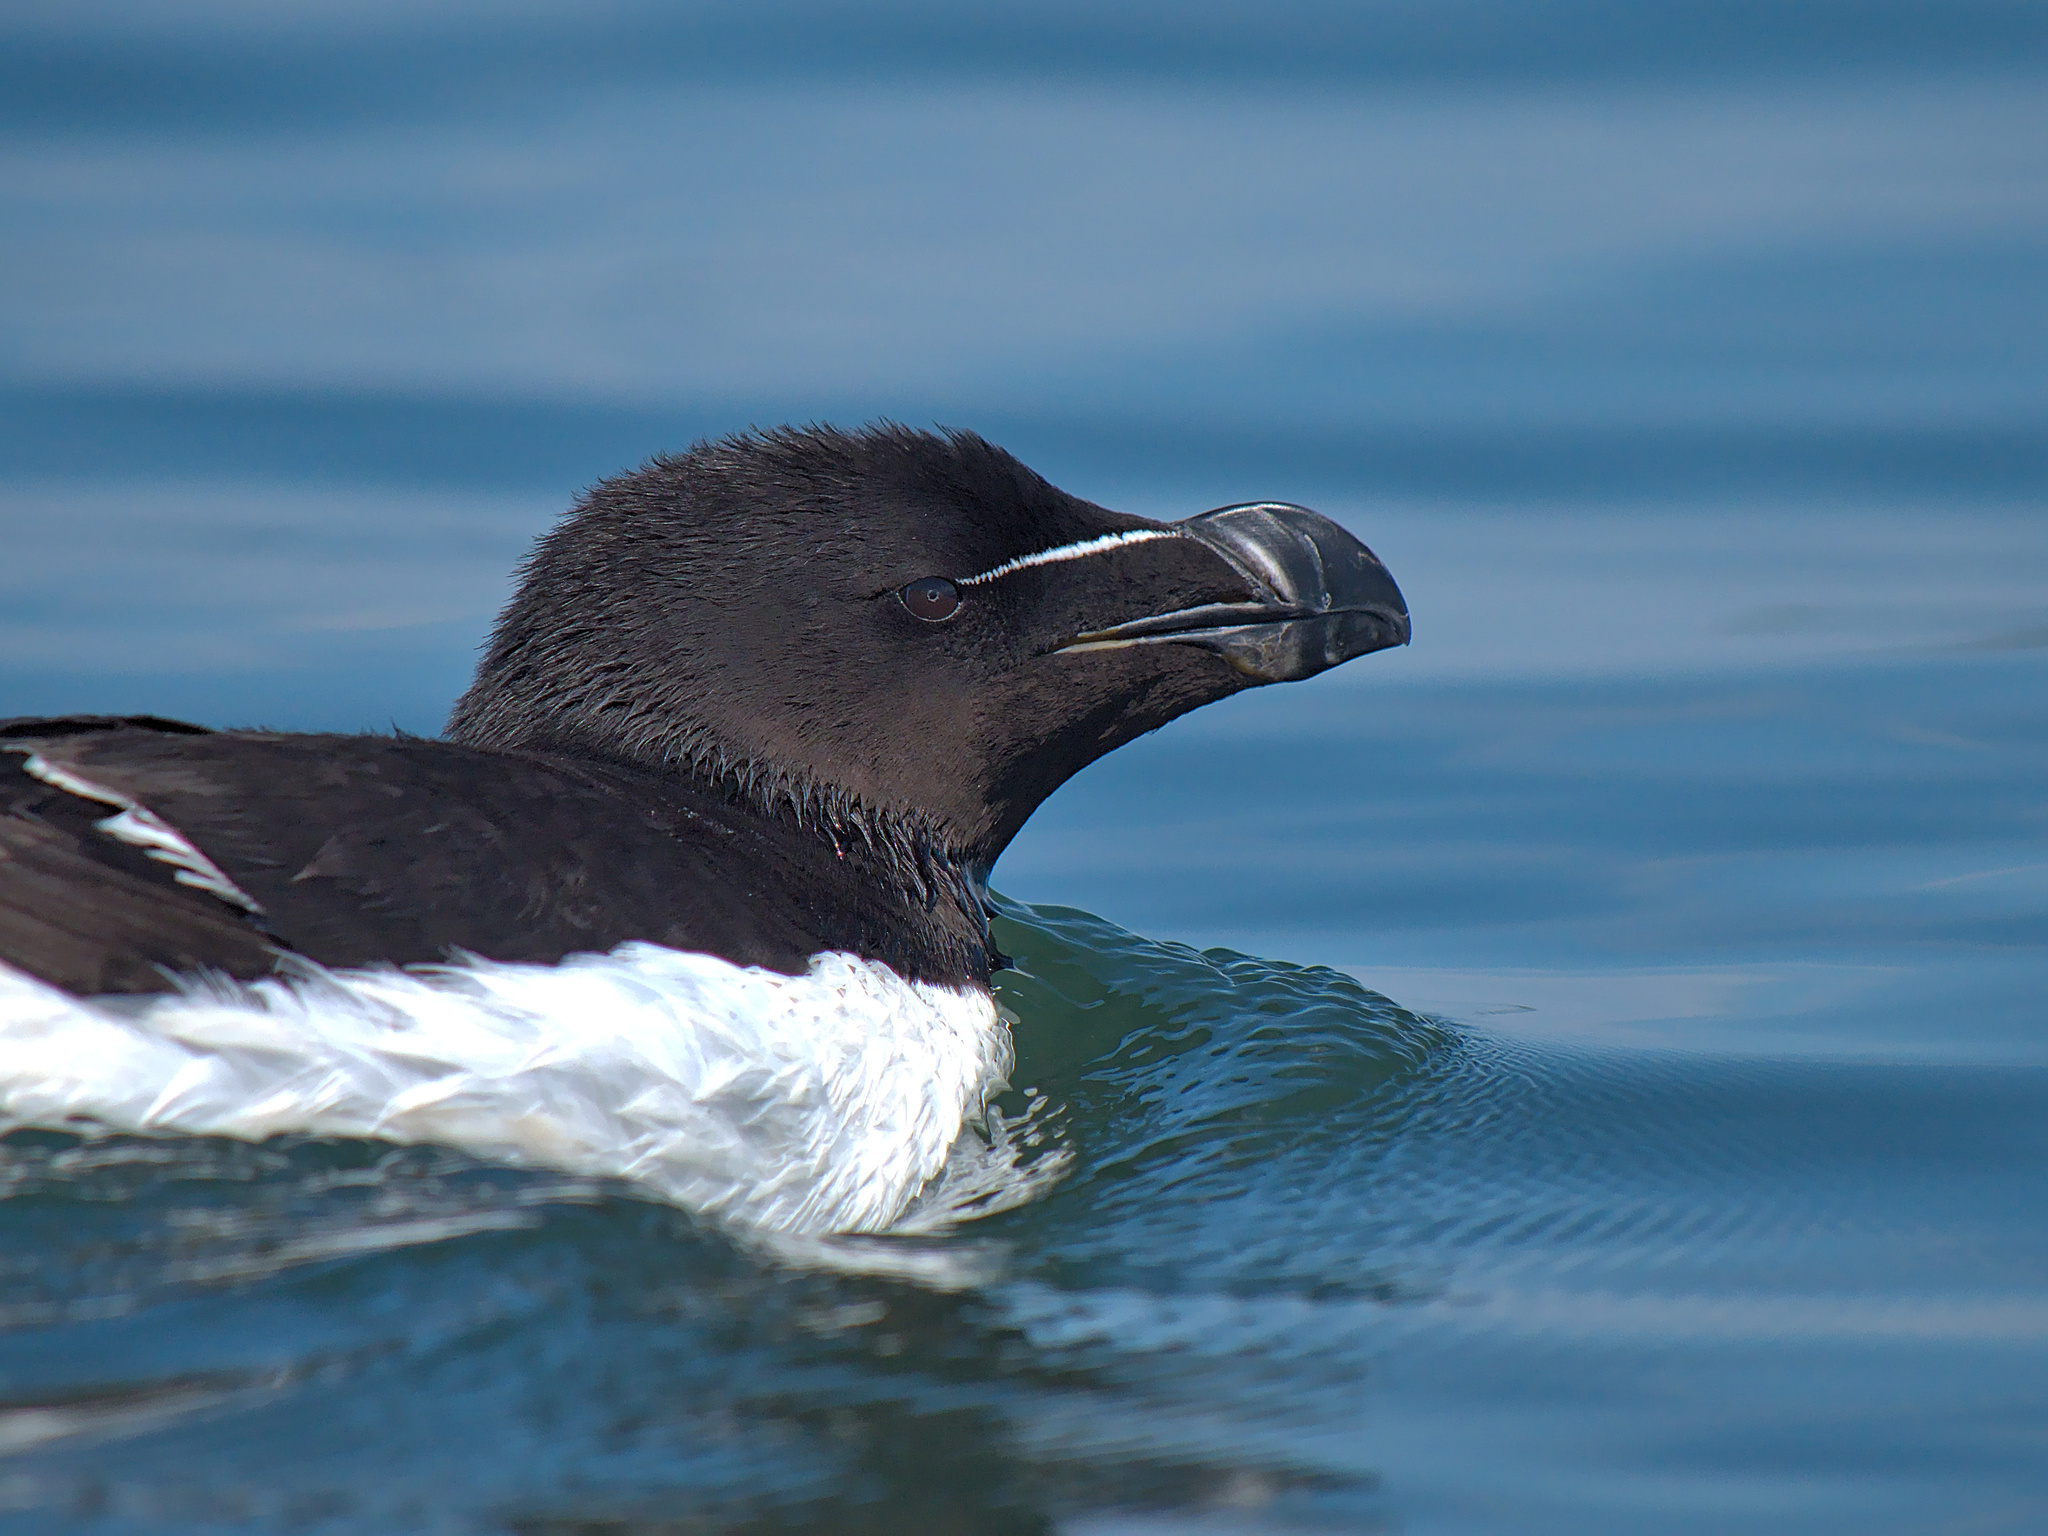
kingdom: Animalia
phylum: Chordata
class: Aves
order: Charadriiformes
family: Alcidae
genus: Alca
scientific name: Alca torda
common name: Razorbill
